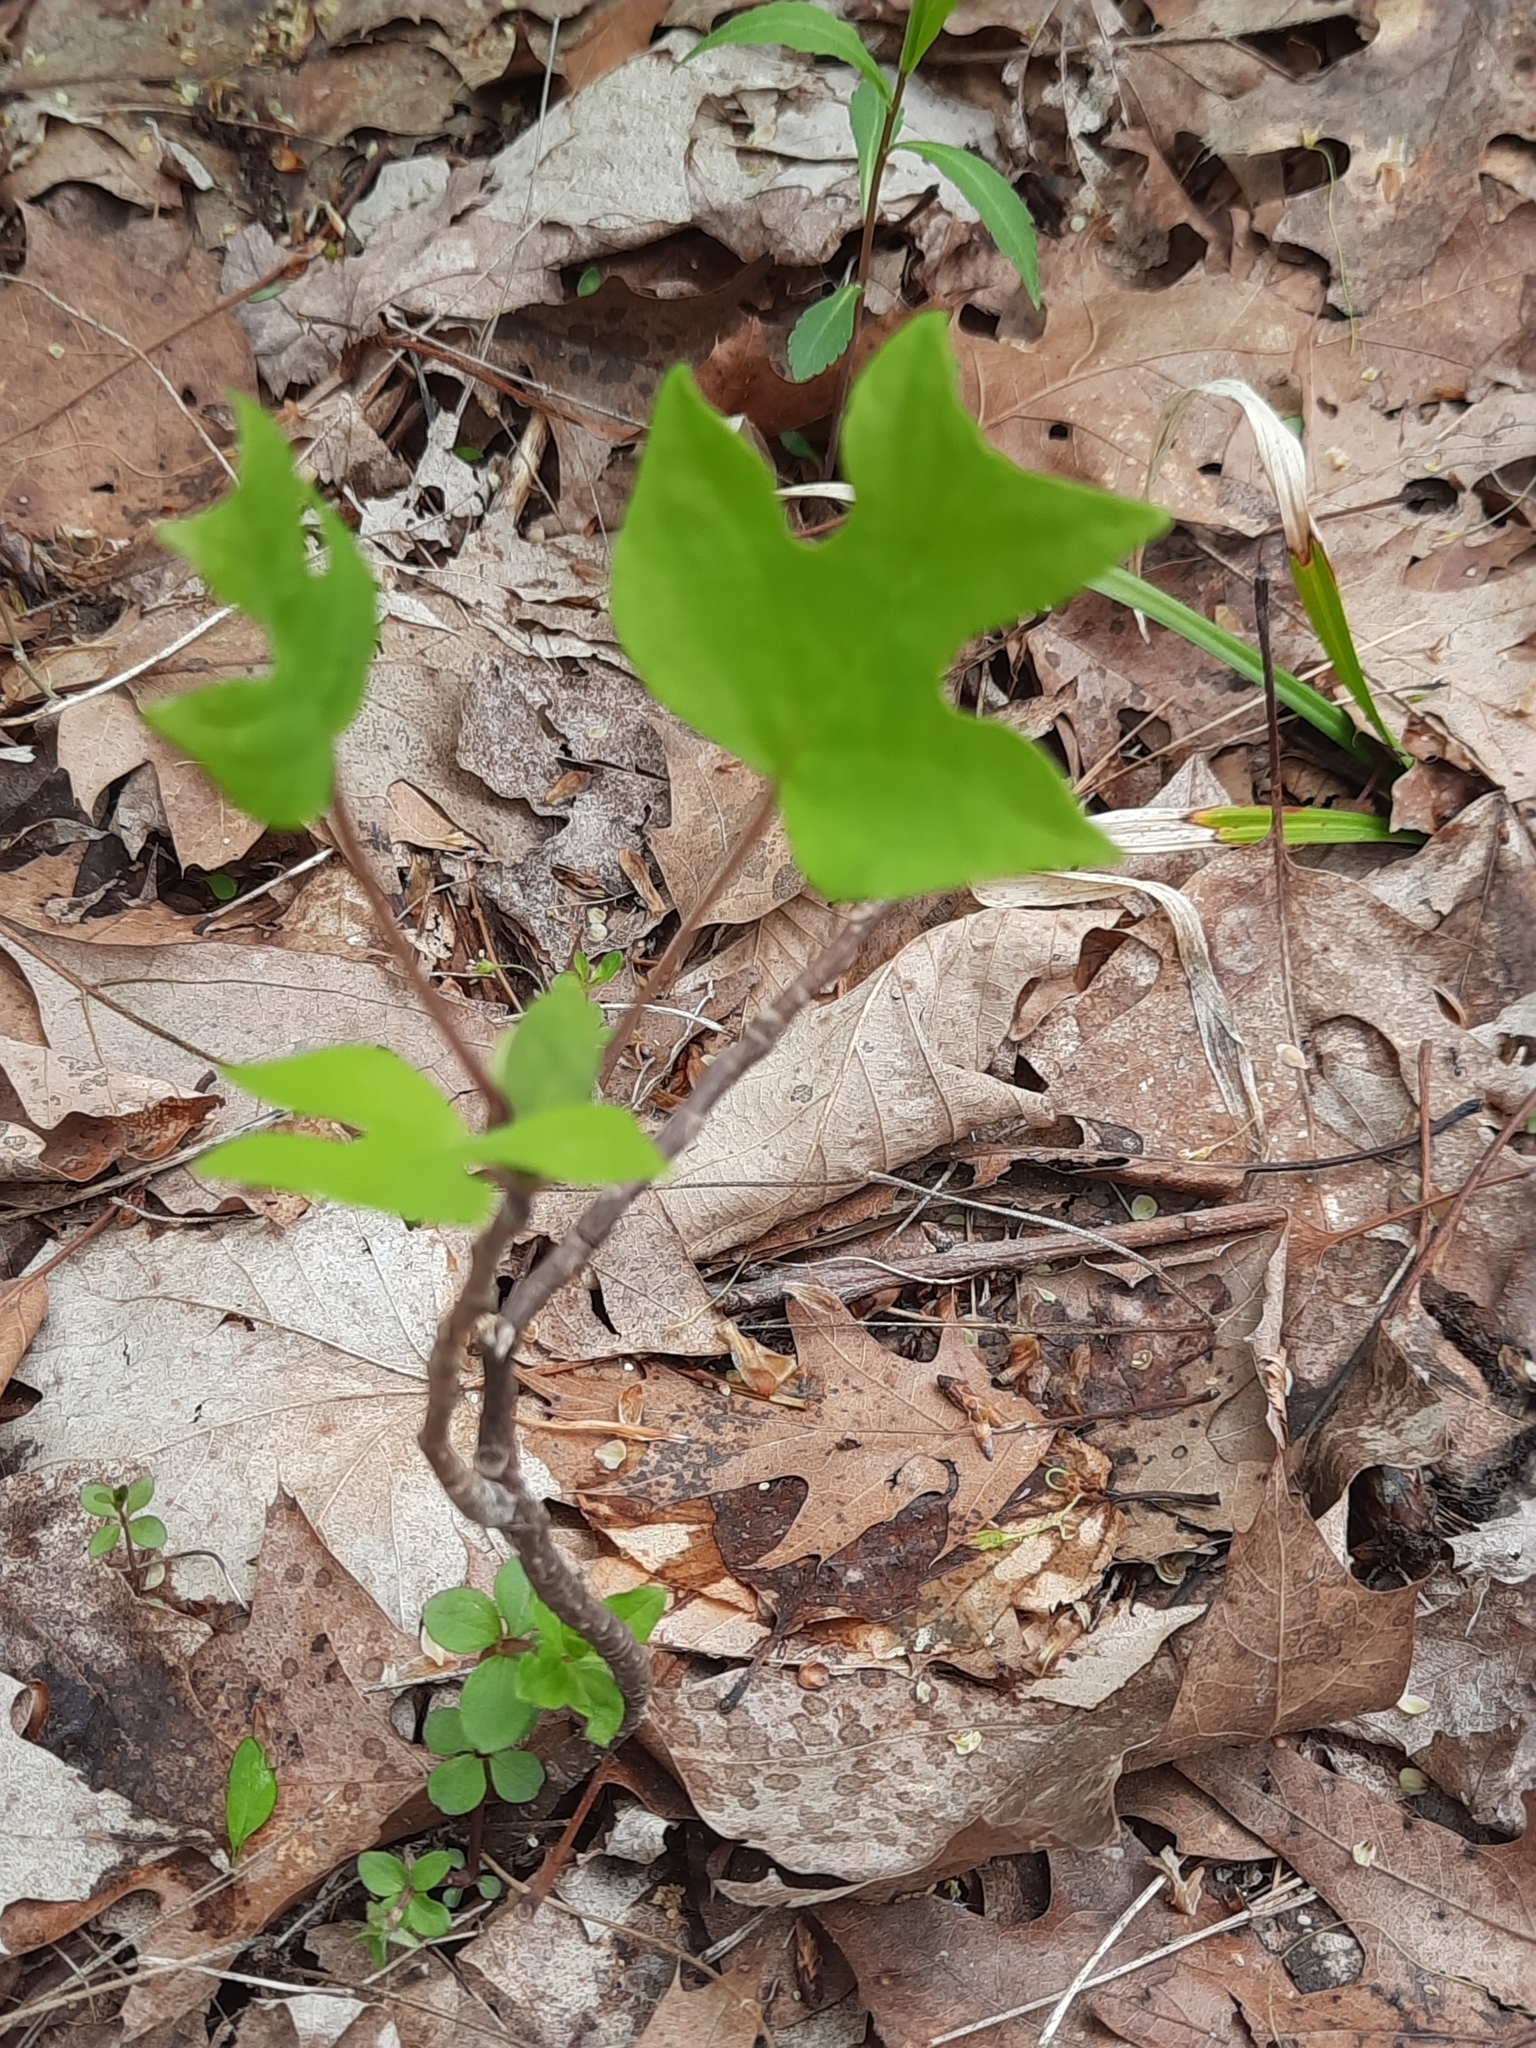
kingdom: Plantae
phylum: Tracheophyta
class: Magnoliopsida
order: Magnoliales
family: Magnoliaceae
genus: Liriodendron
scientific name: Liriodendron tulipifera
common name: Tulip tree
